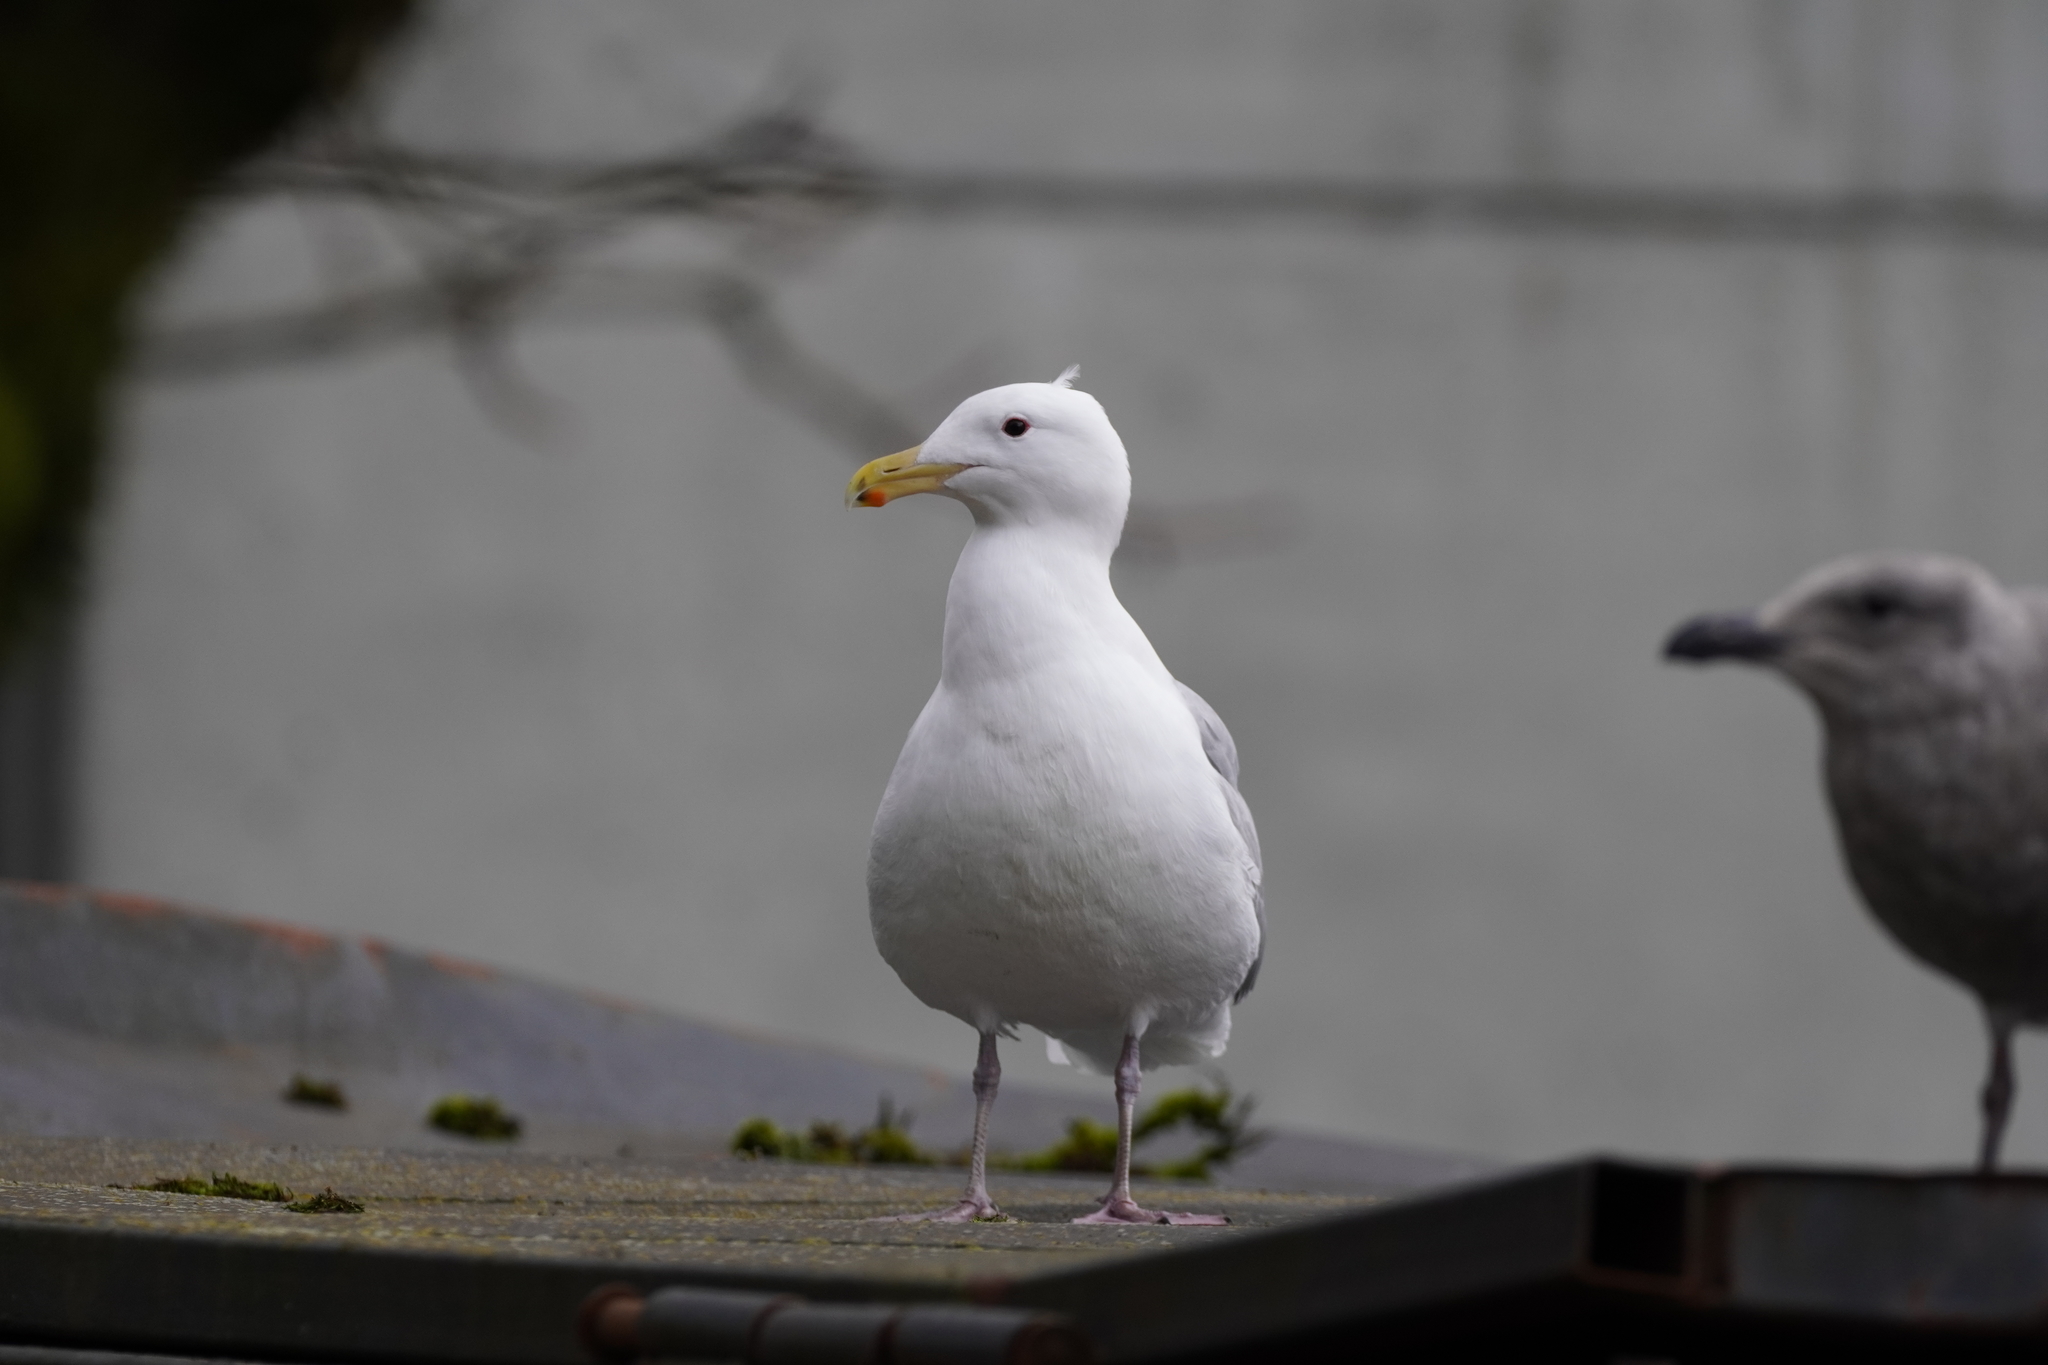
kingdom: Animalia
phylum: Chordata
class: Aves
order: Charadriiformes
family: Laridae
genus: Larus
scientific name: Larus
